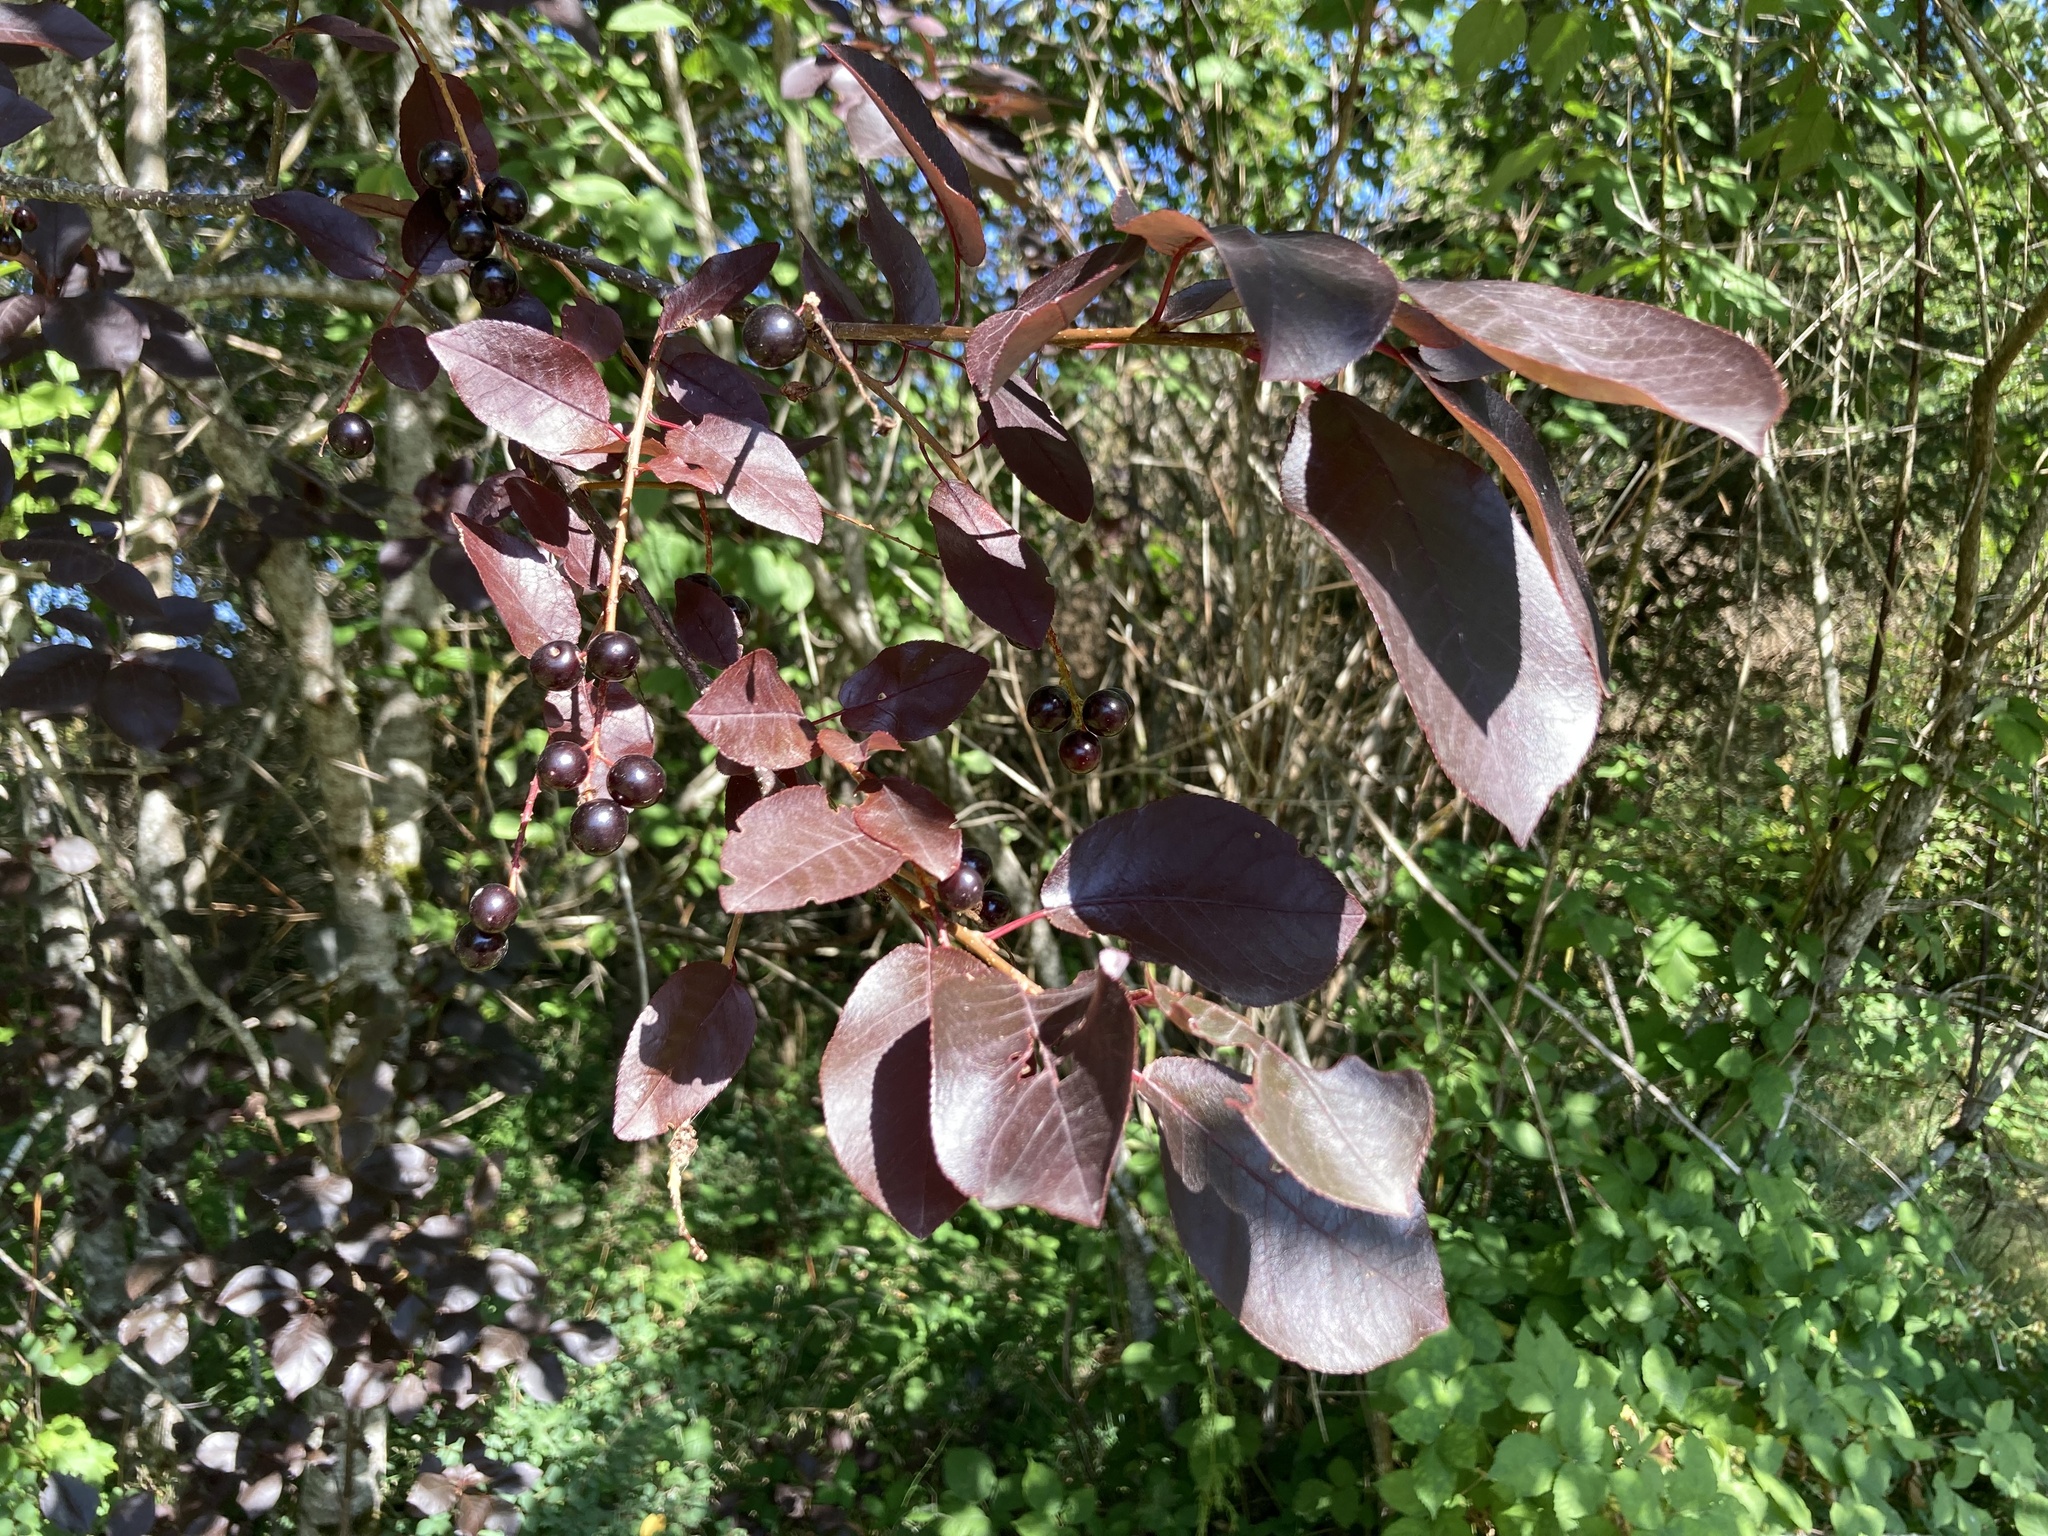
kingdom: Plantae
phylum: Tracheophyta
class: Magnoliopsida
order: Rosales
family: Rosaceae
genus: Prunus
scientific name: Prunus virginiana
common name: Chokecherry
